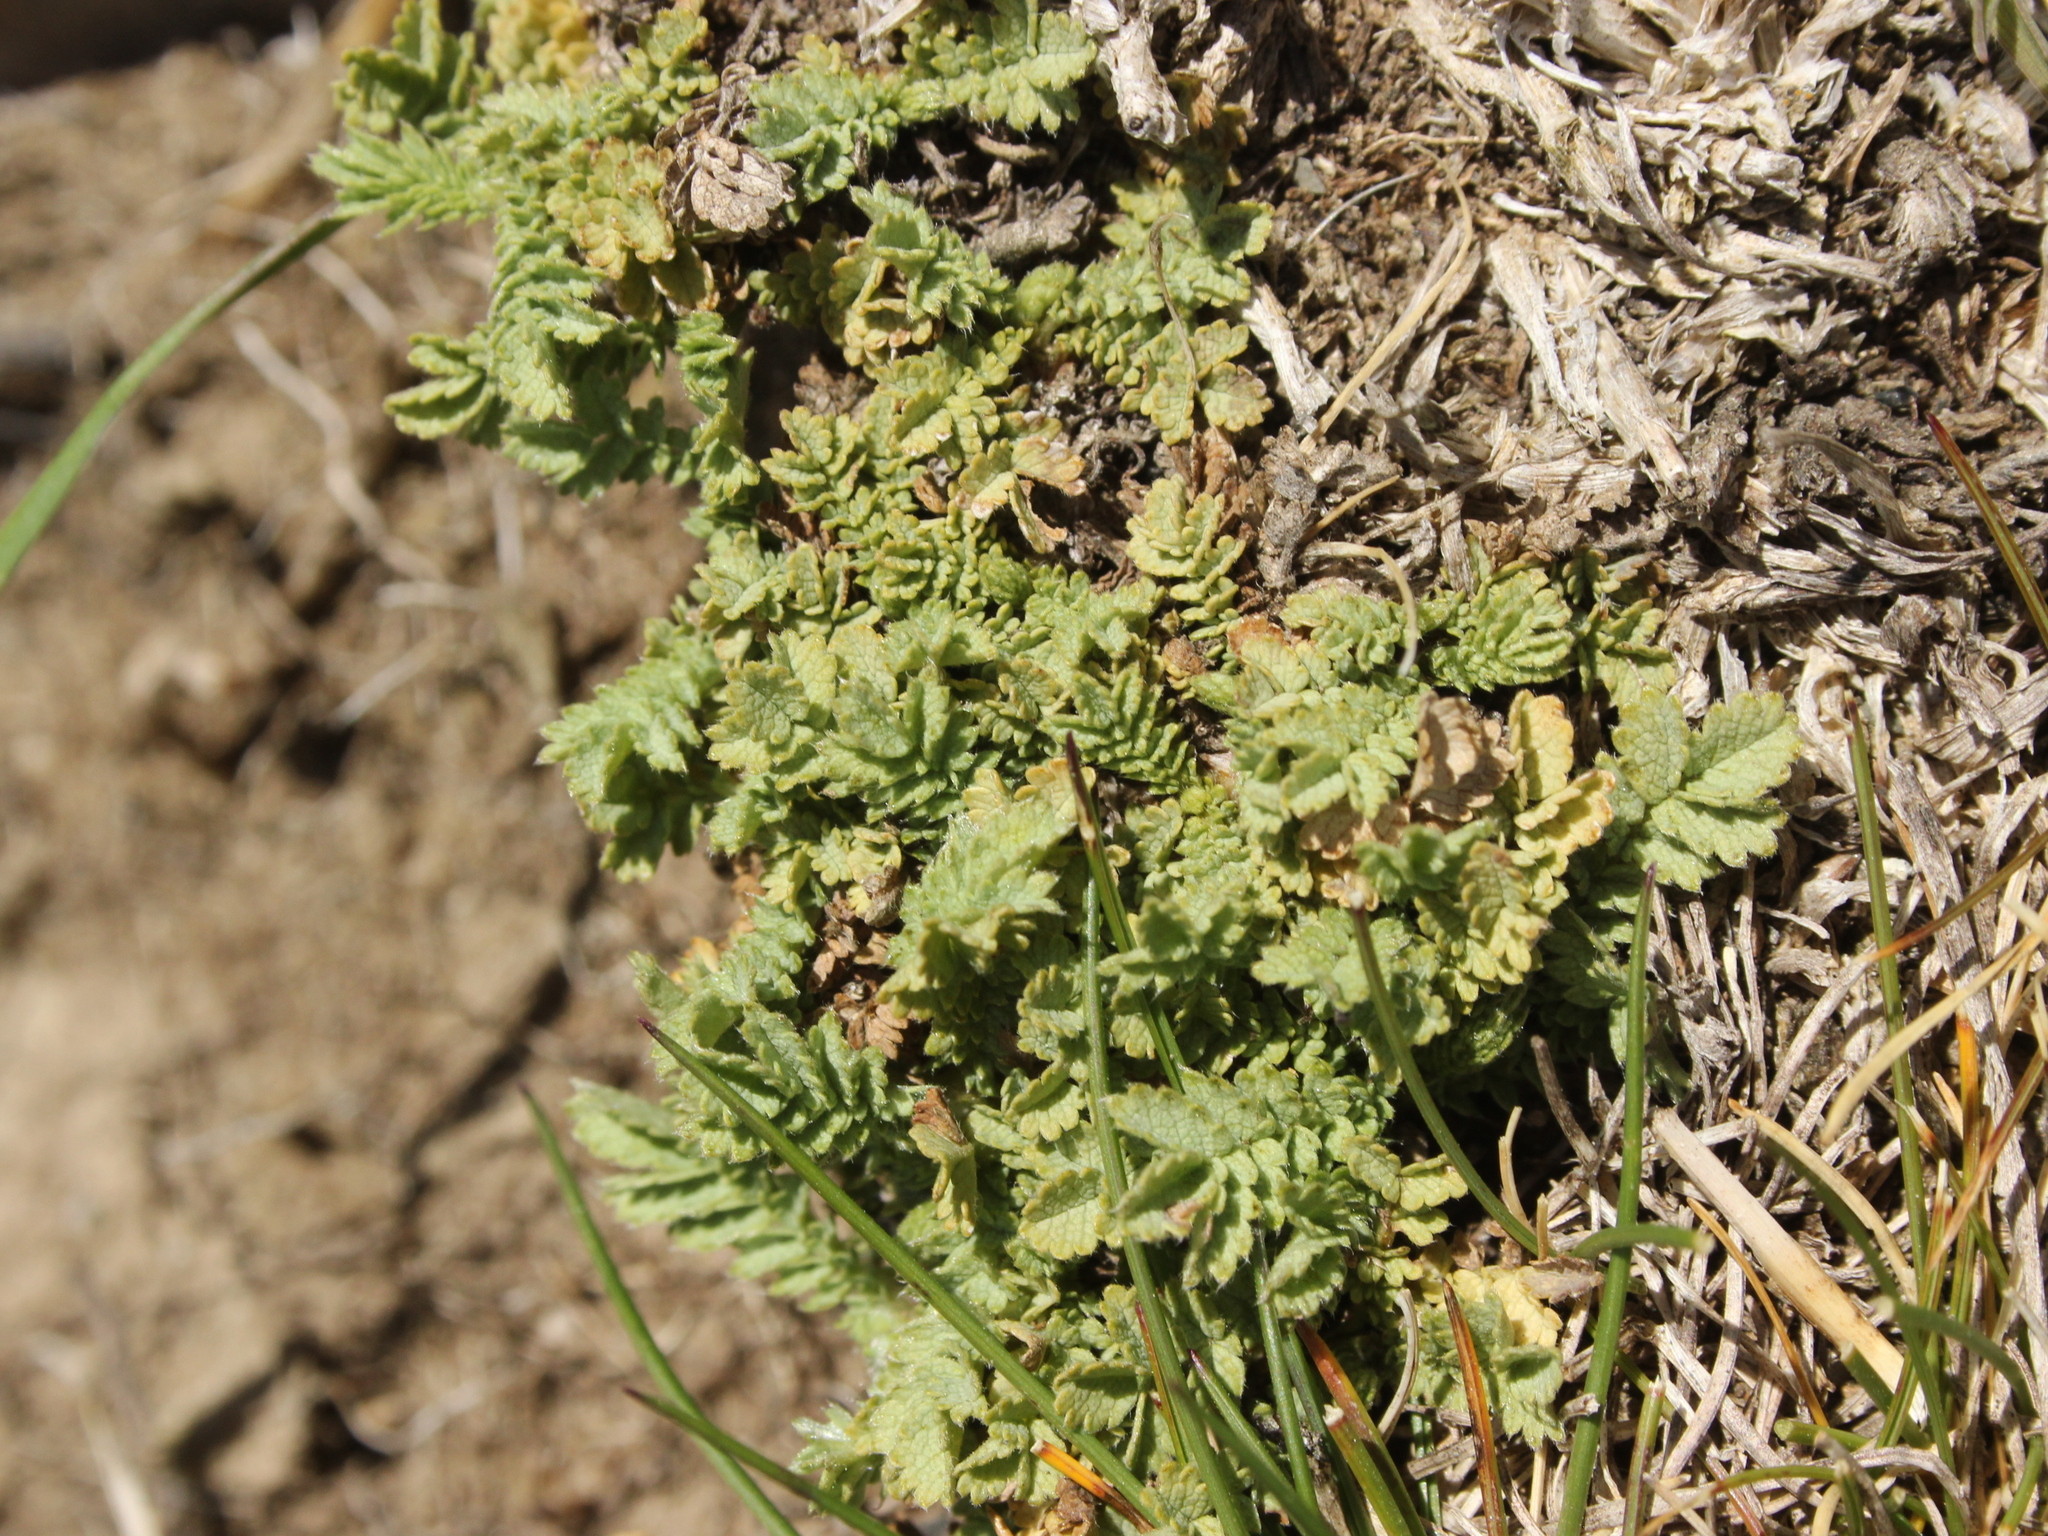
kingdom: Plantae
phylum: Tracheophyta
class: Magnoliopsida
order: Rosales
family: Rosaceae
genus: Acaena
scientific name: Acaena buchananii
